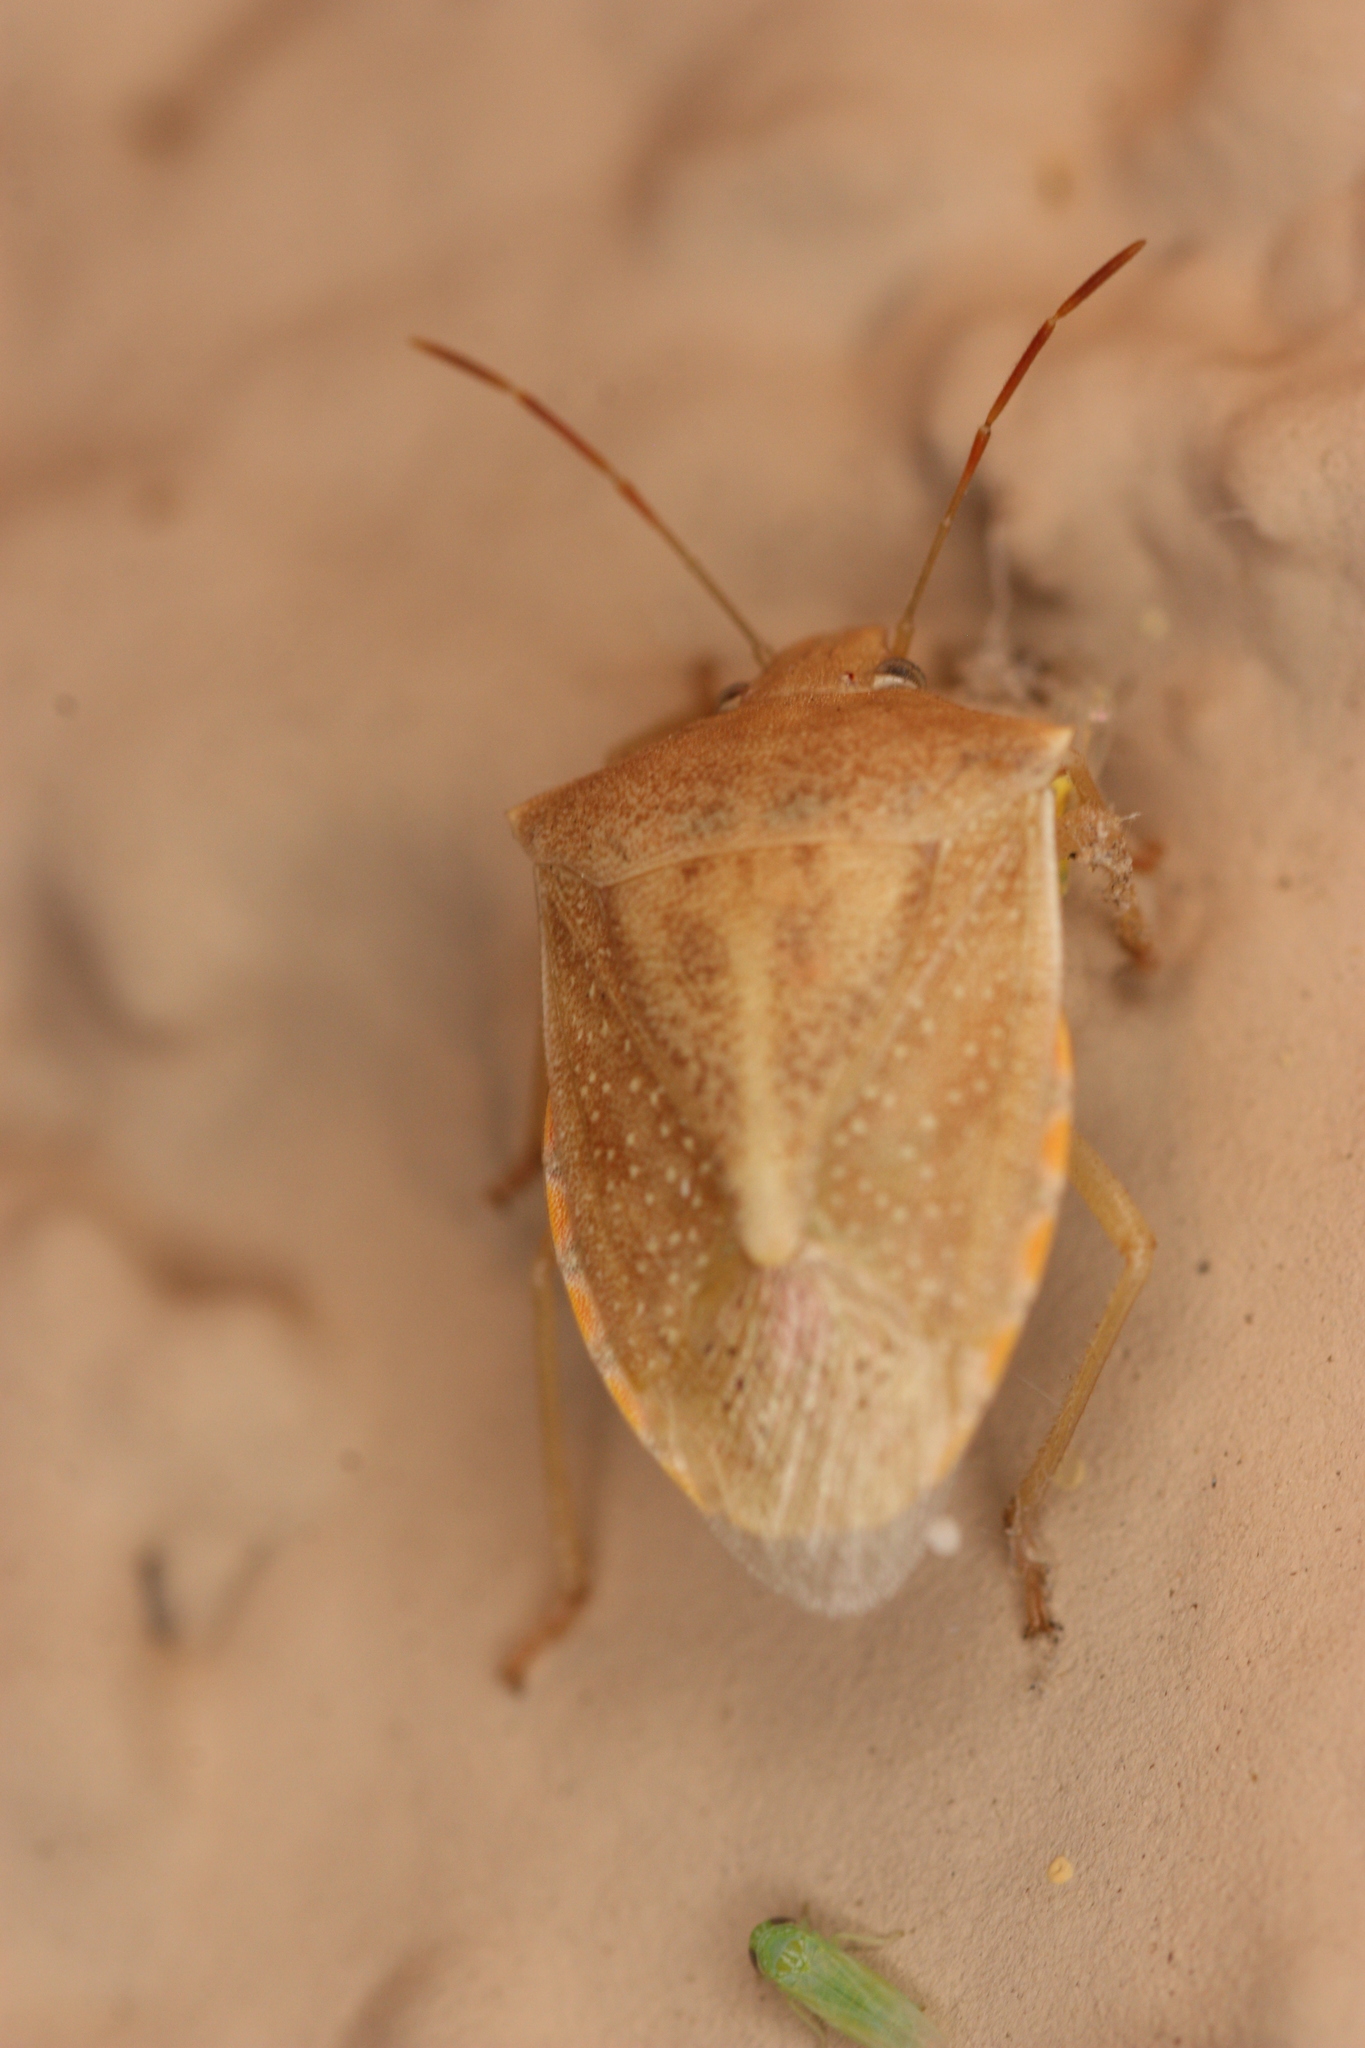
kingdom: Animalia
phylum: Arthropoda
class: Insecta
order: Hemiptera
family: Pentatomidae
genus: Thyanta
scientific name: Thyanta accerra
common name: Stink bug
